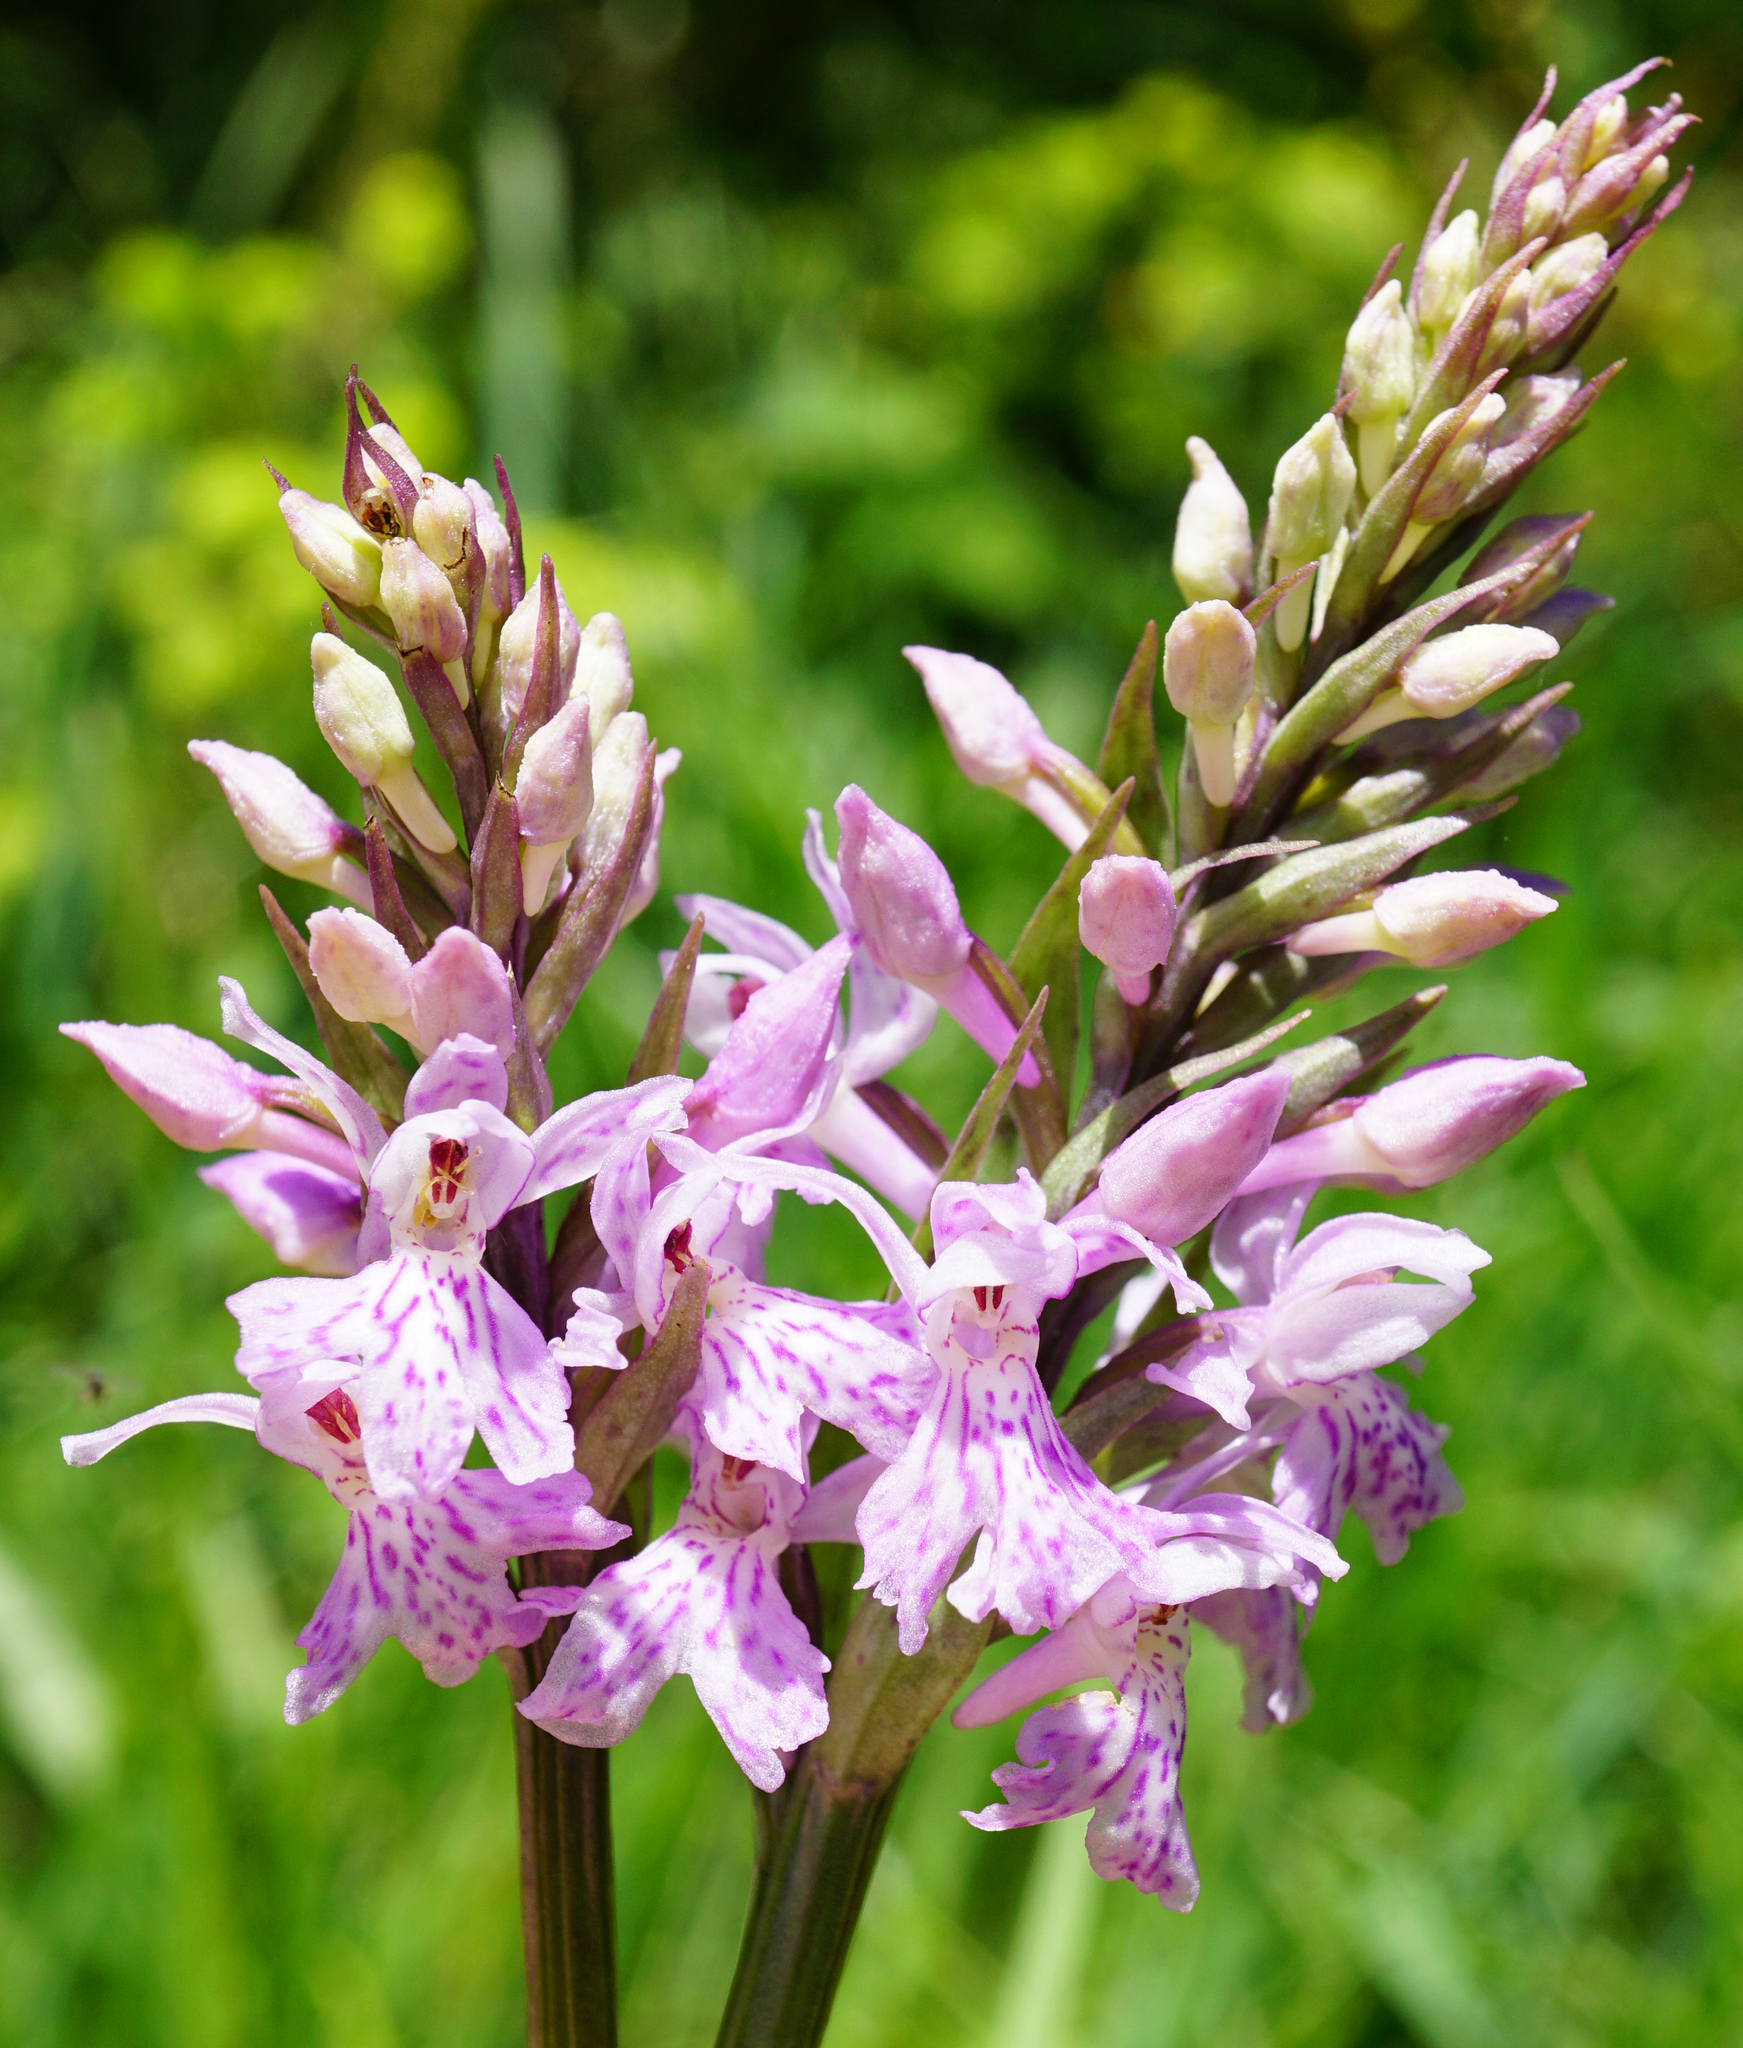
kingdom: Plantae
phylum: Tracheophyta
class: Liliopsida
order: Asparagales
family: Orchidaceae
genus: Dactylorhiza
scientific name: Dactylorhiza maculata
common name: Heath spotted-orchid
